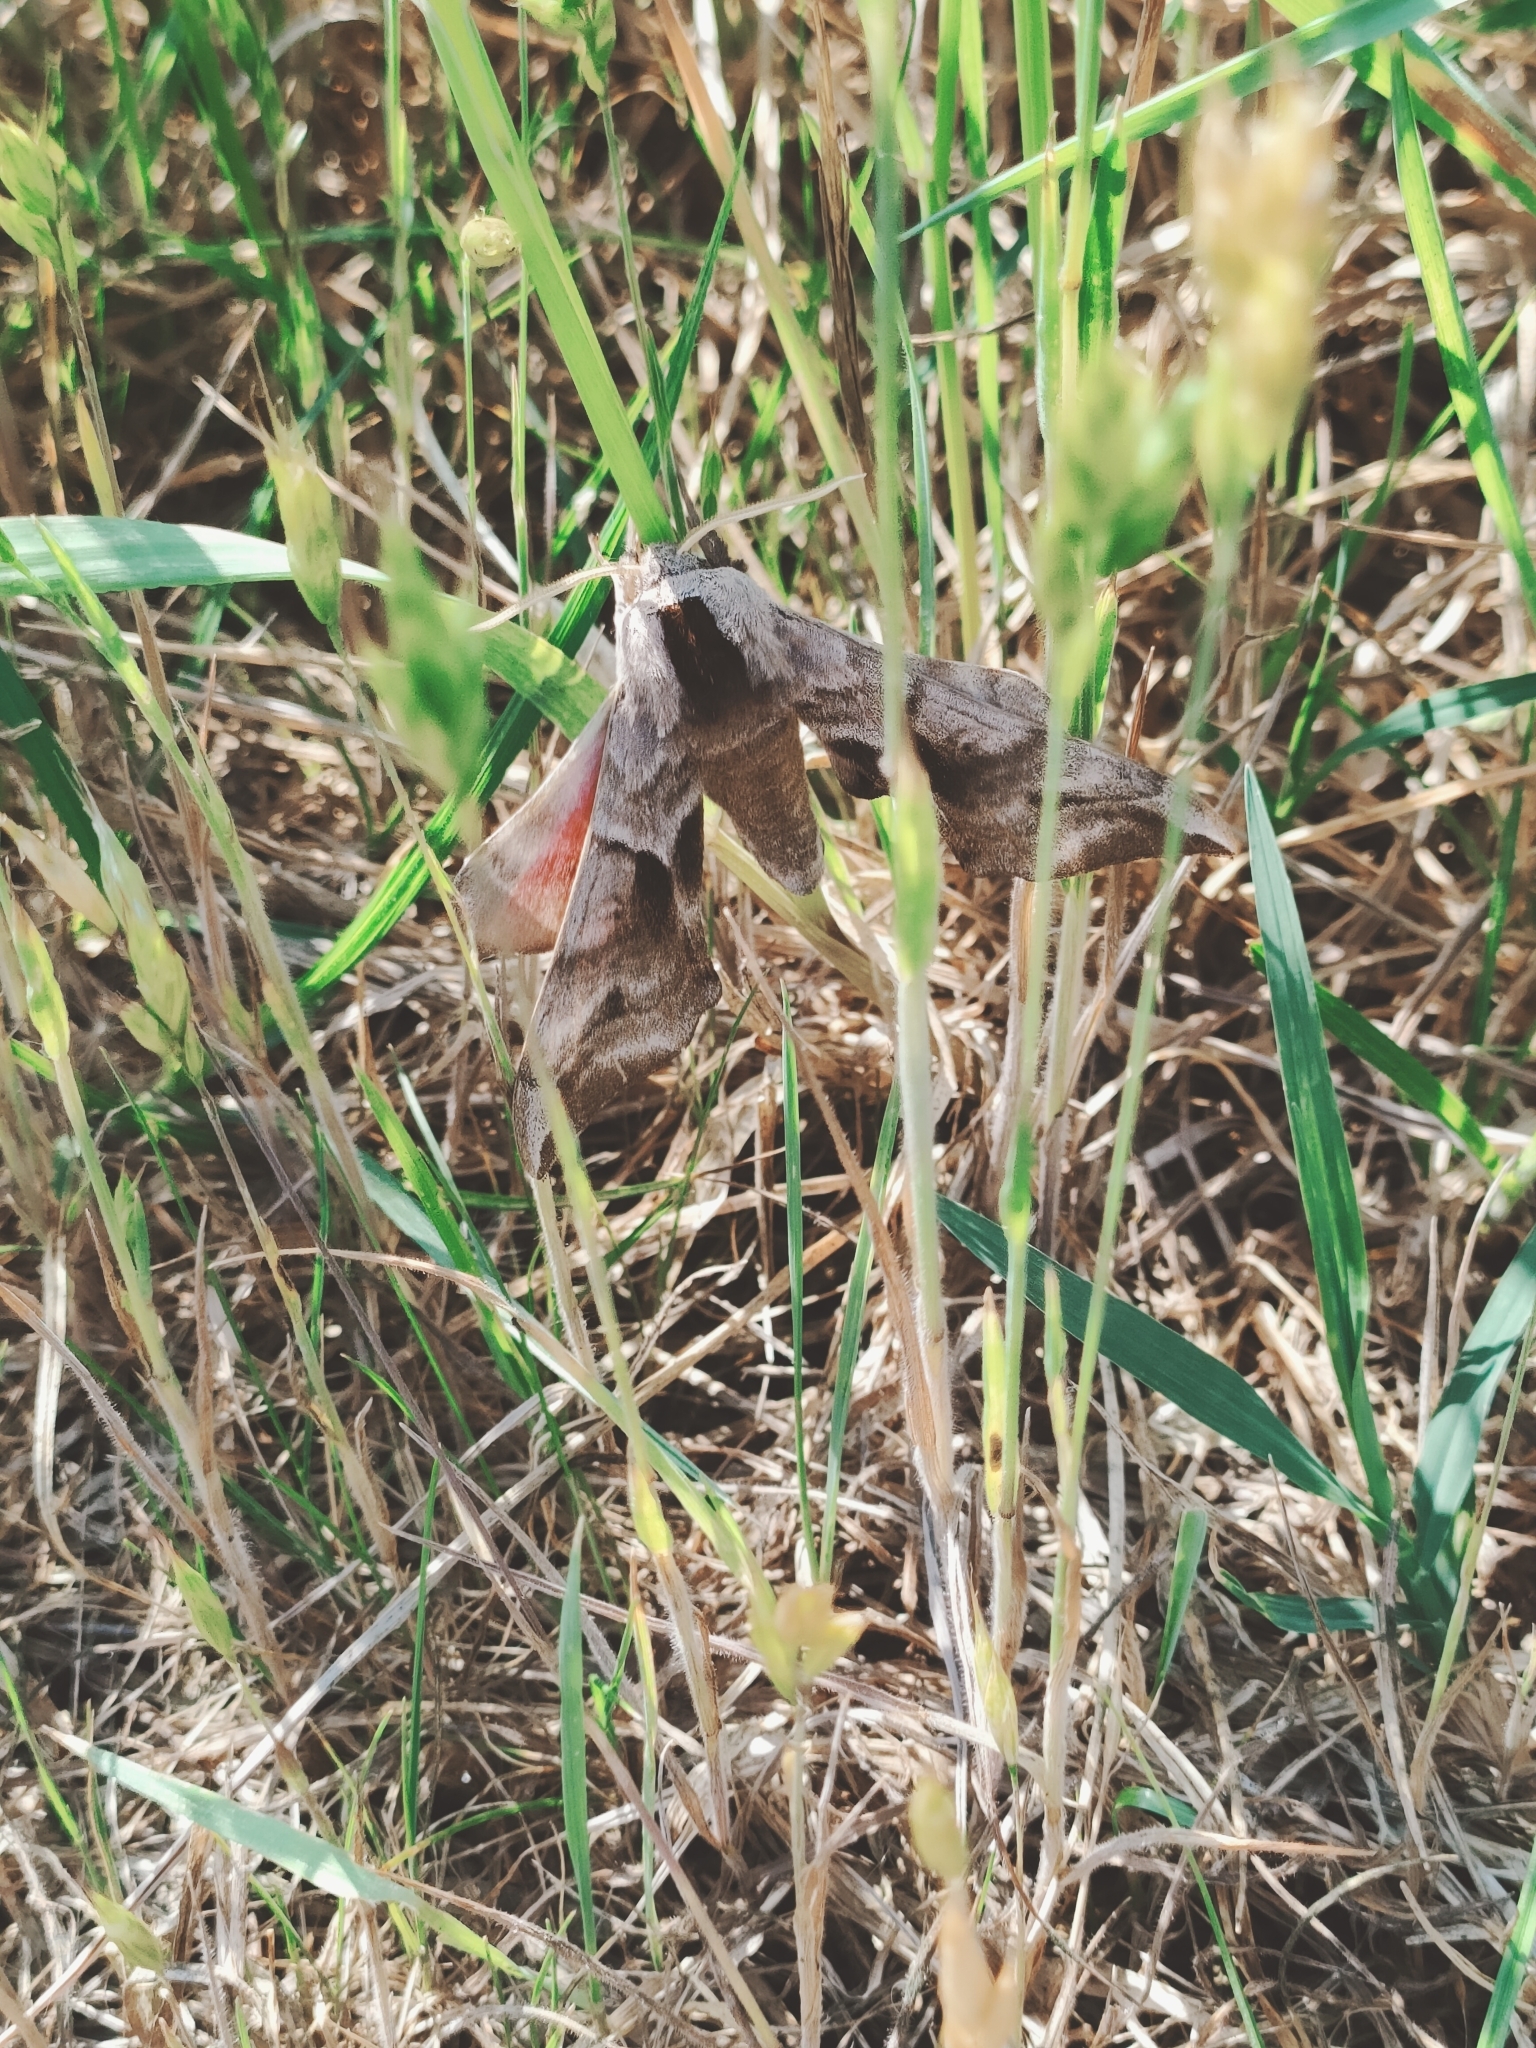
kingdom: Animalia
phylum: Arthropoda
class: Insecta
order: Lepidoptera
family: Sphingidae
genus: Smerinthus
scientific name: Smerinthus ocellata
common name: Eyed hawk-moth
